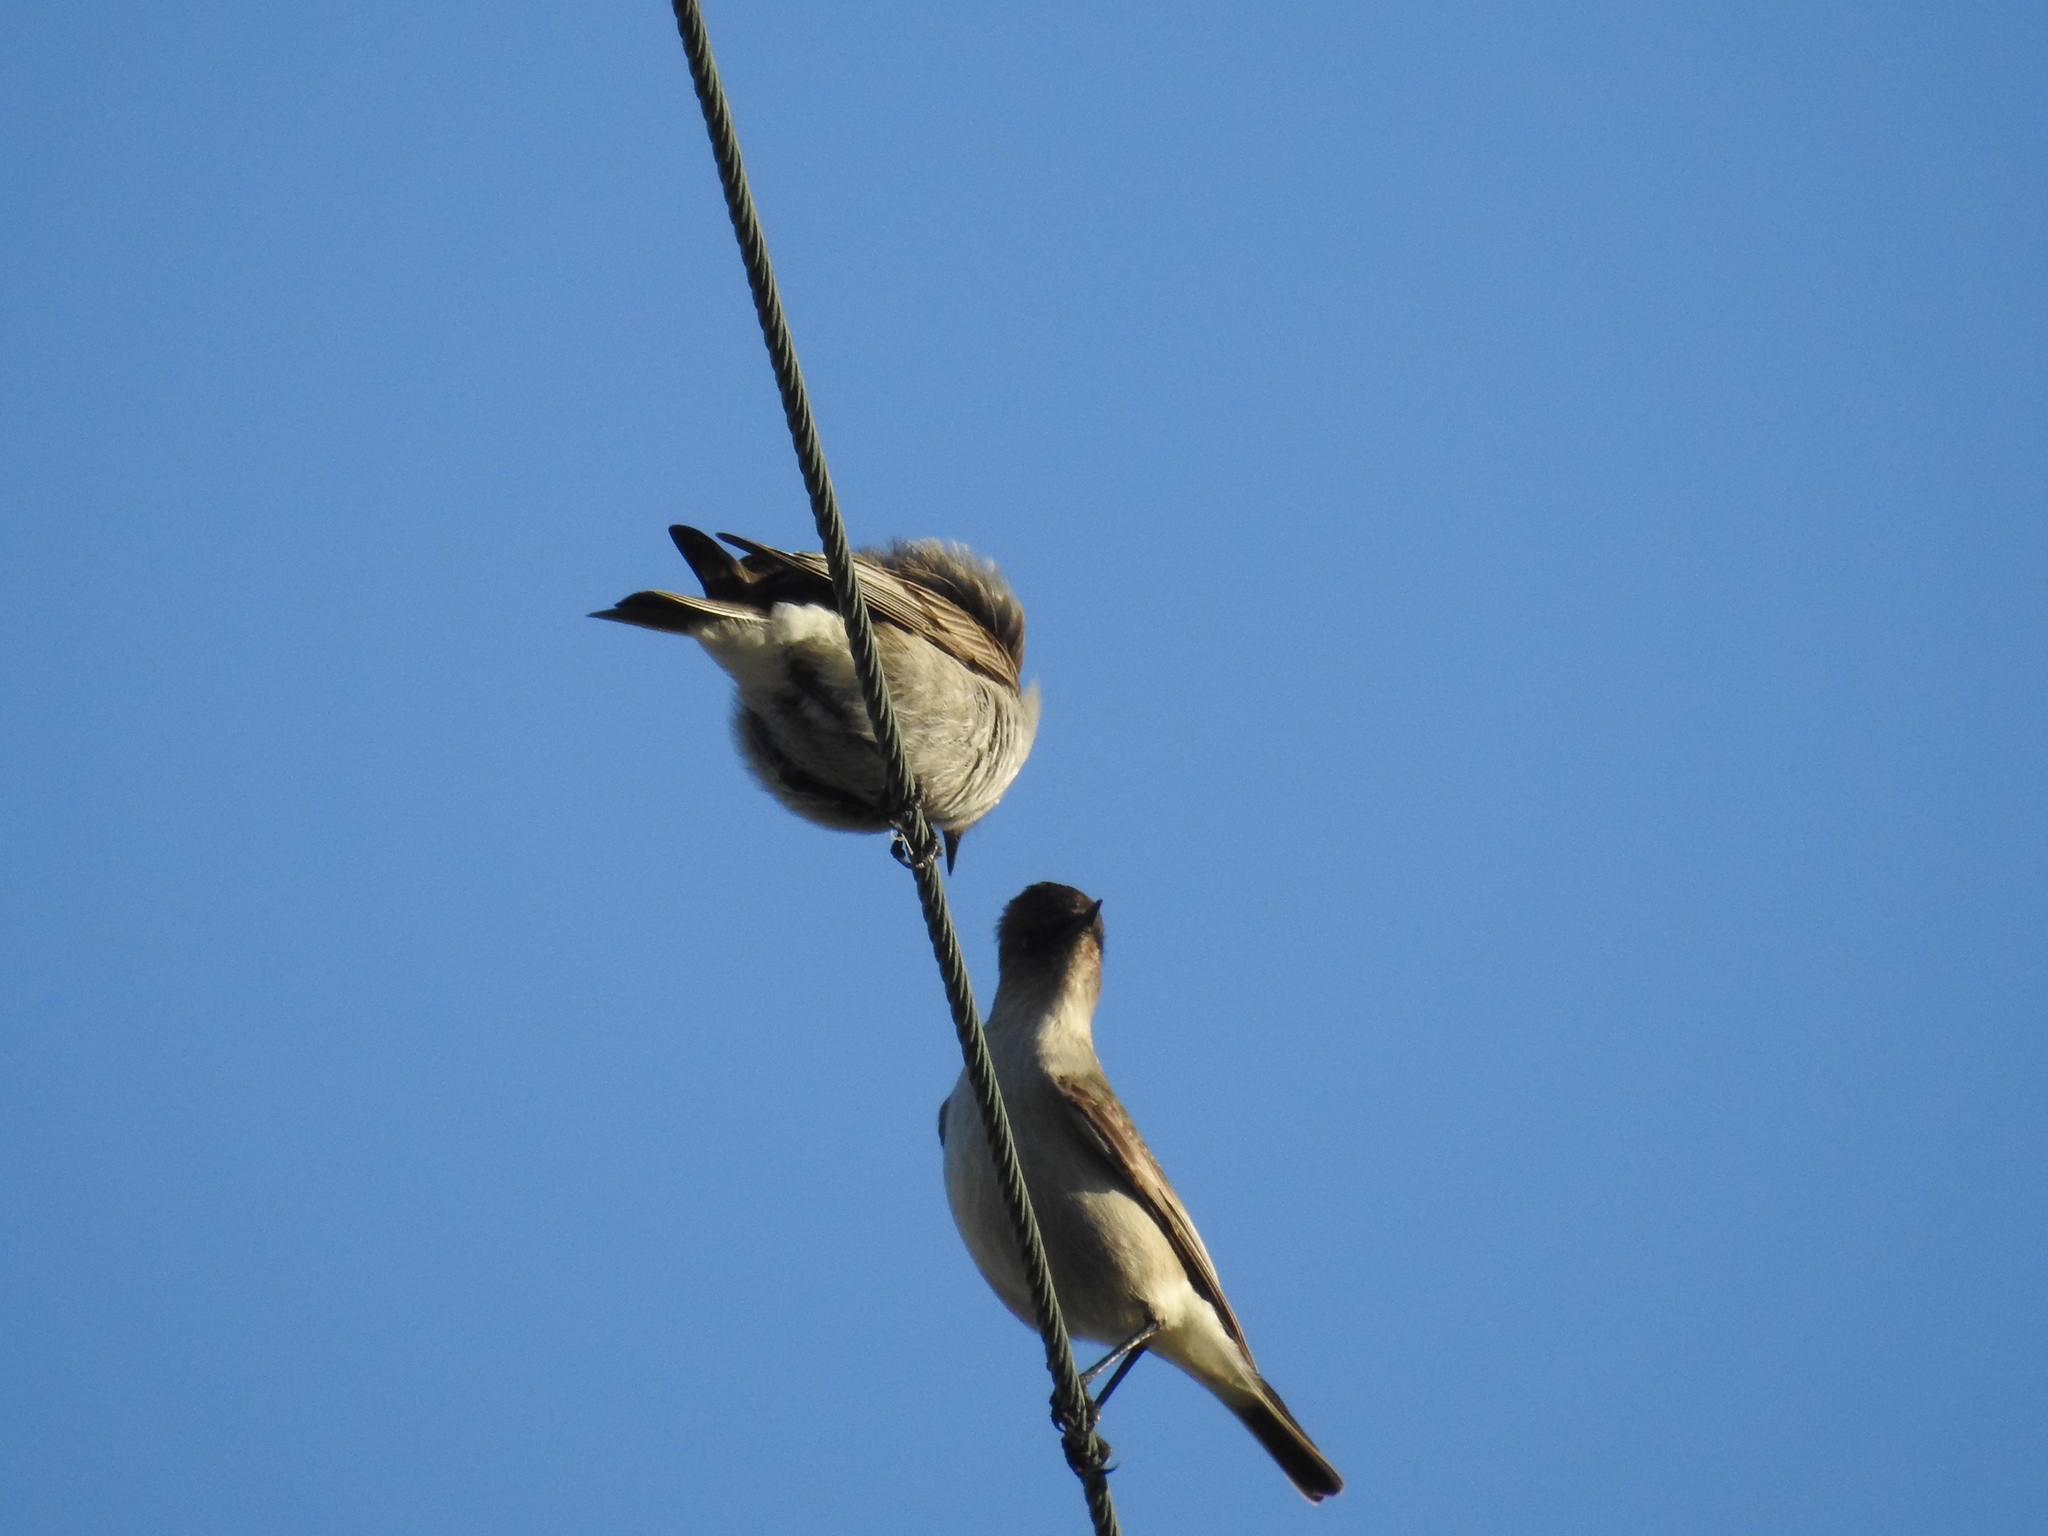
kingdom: Animalia
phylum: Chordata
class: Aves
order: Passeriformes
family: Tyrannidae
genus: Muscisaxicola
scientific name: Muscisaxicola maclovianus
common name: Dark-faced ground tyrant
